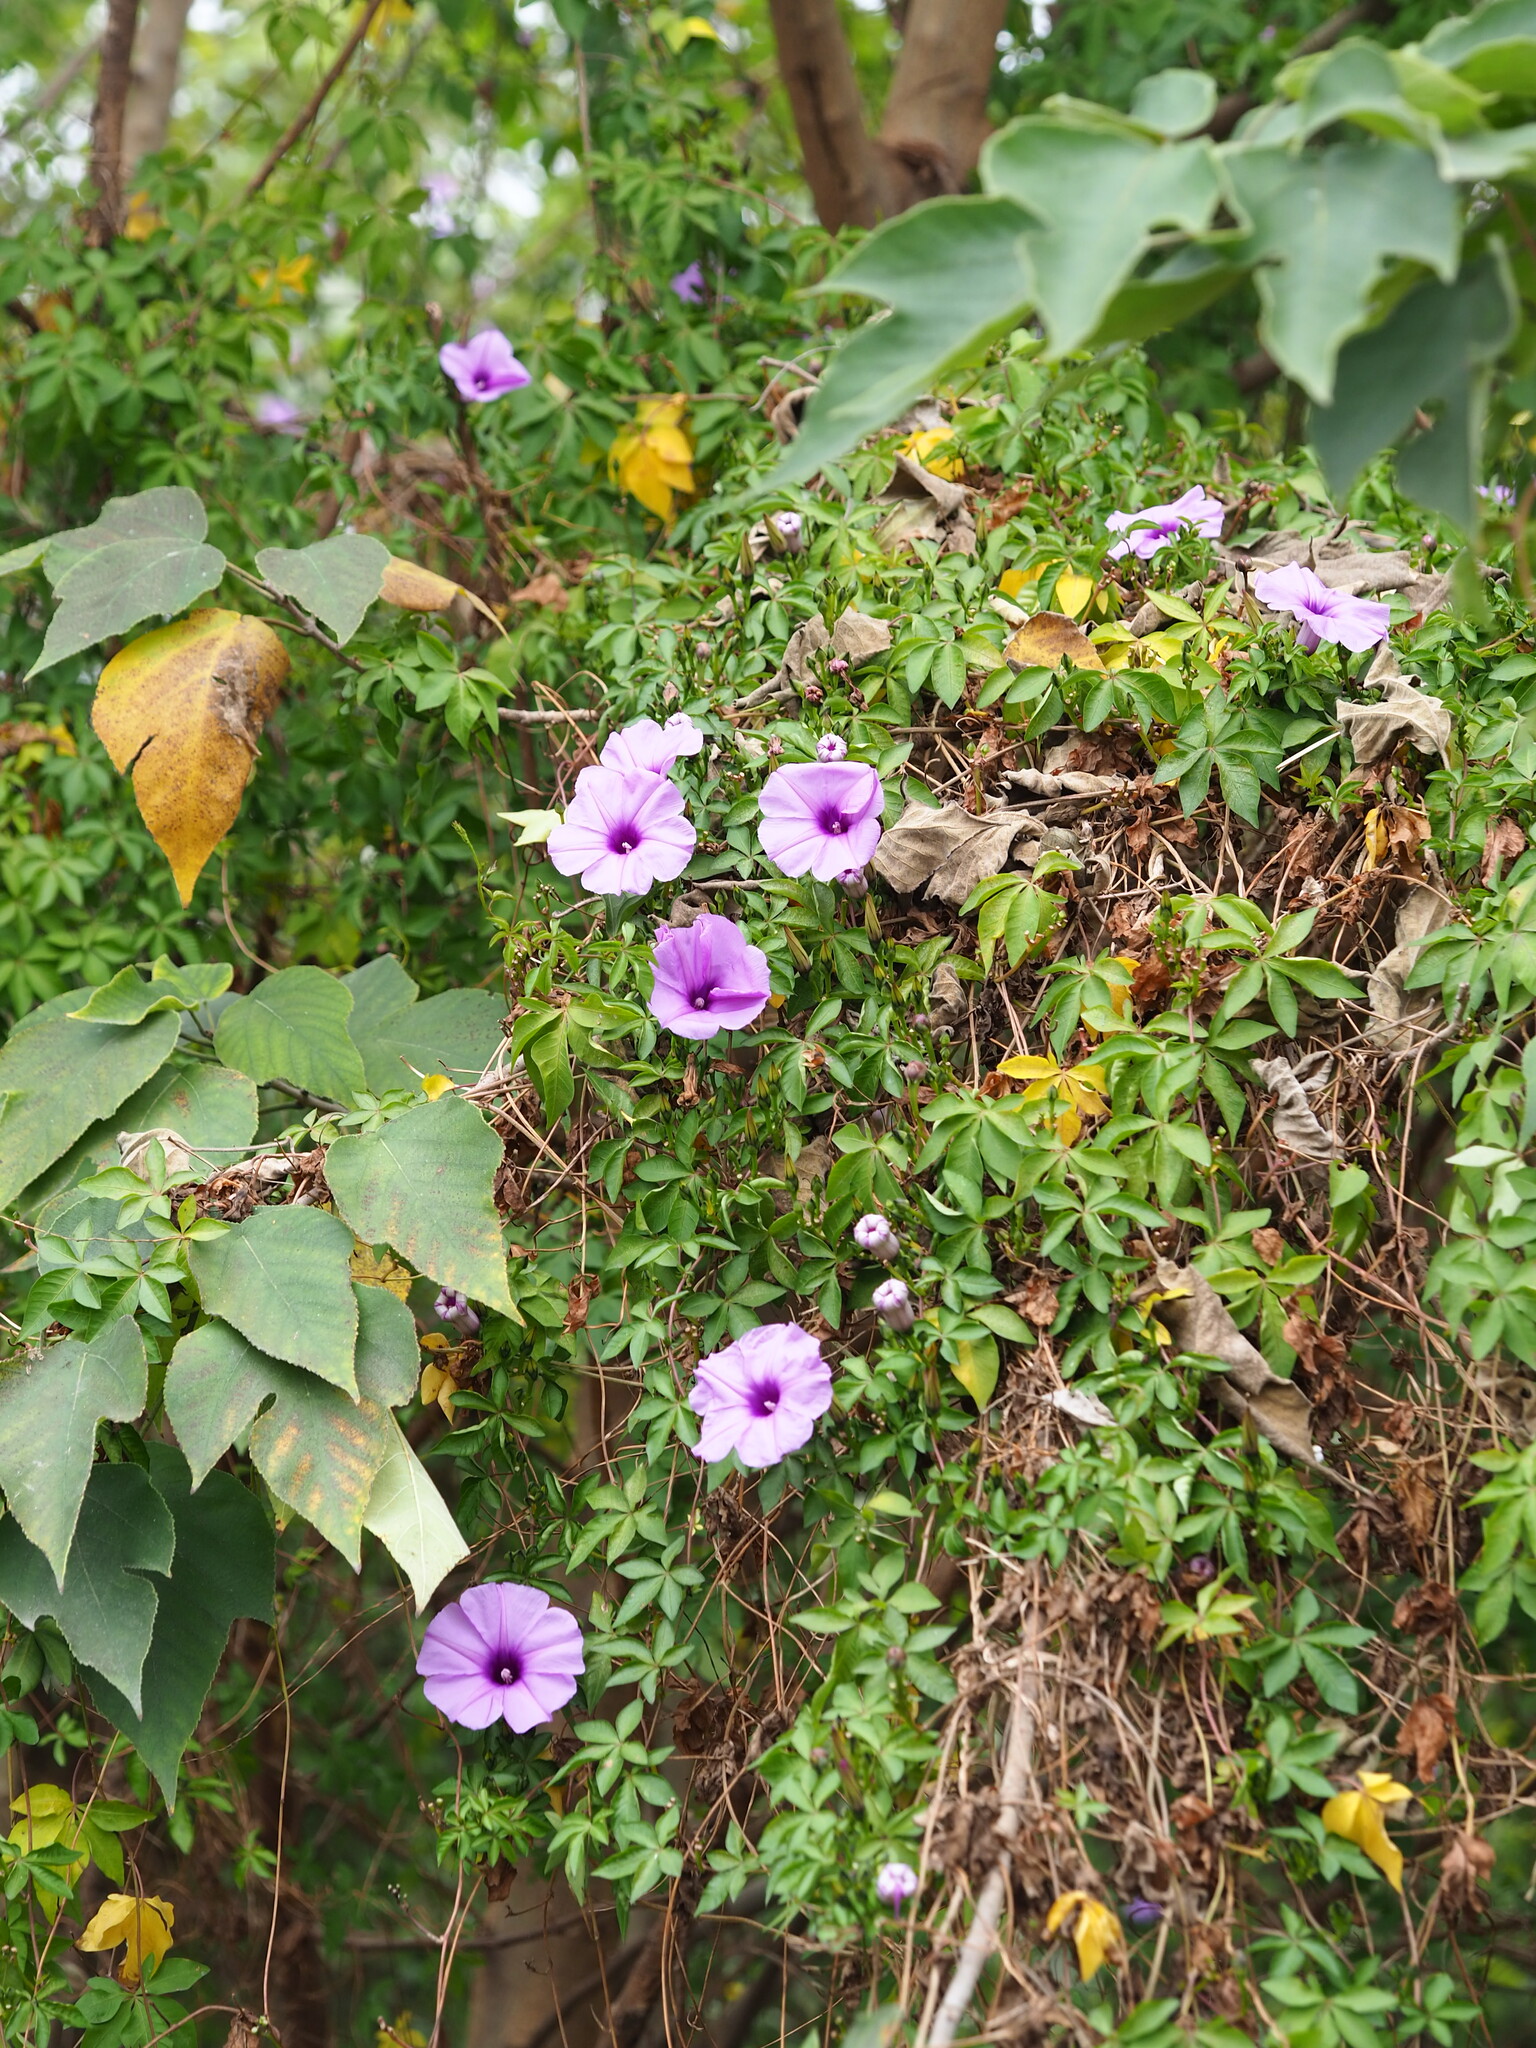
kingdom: Plantae
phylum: Tracheophyta
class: Magnoliopsida
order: Solanales
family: Convolvulaceae
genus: Ipomoea
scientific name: Ipomoea cairica
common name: Mile a minute vine
